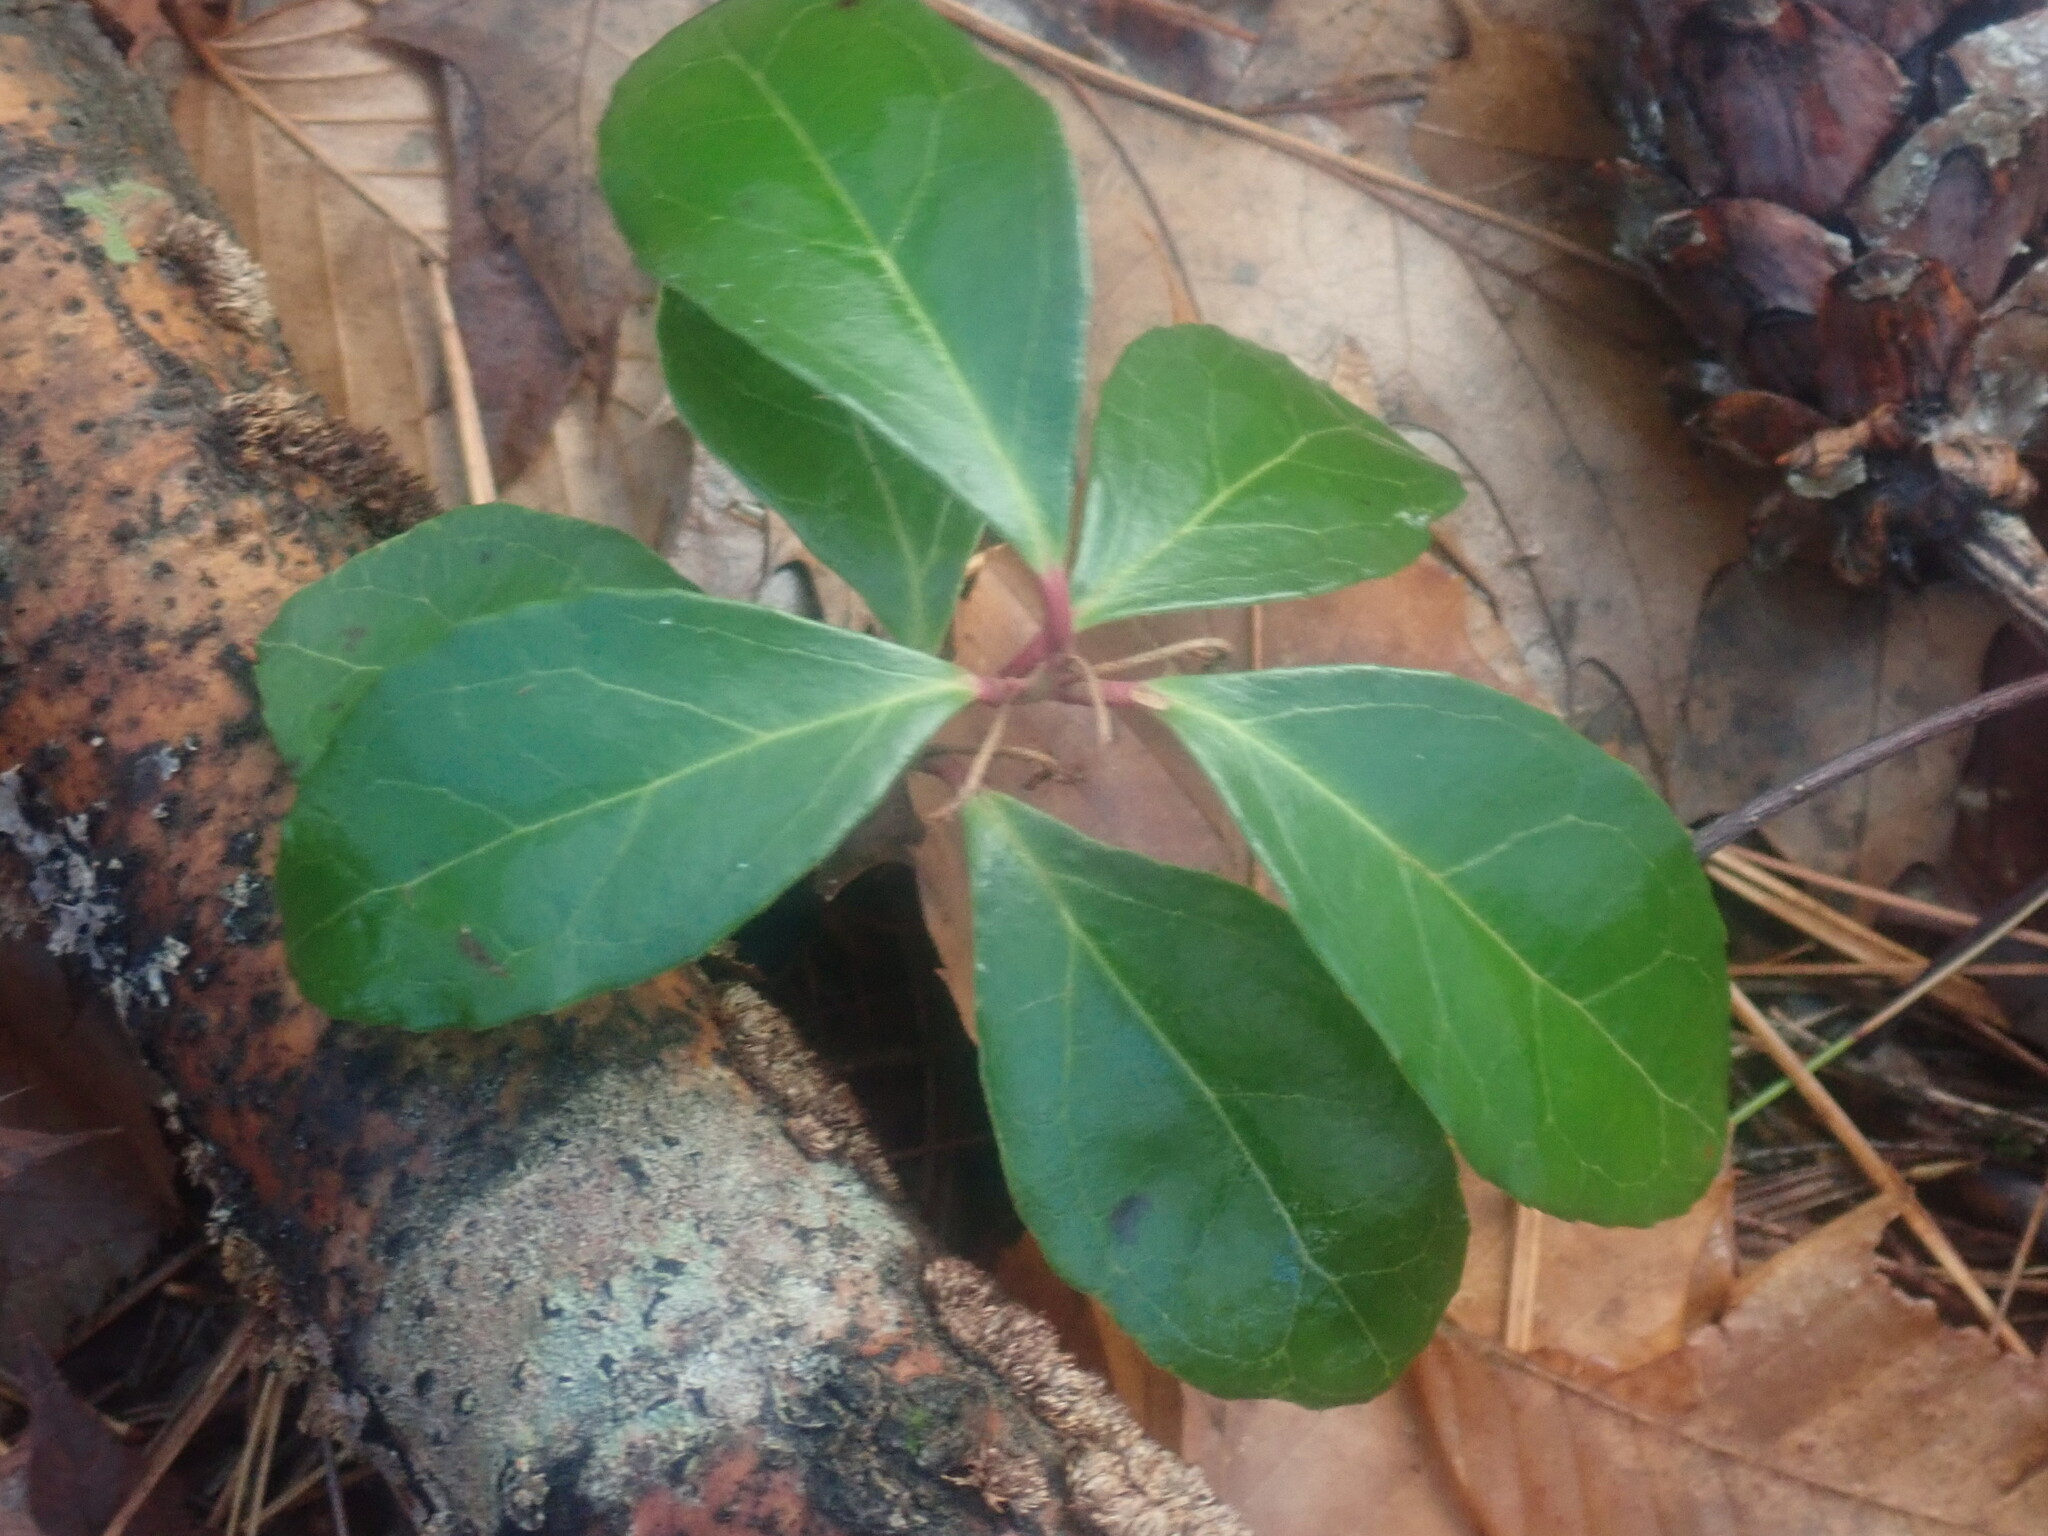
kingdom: Plantae
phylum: Tracheophyta
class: Magnoliopsida
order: Ericales
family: Ericaceae
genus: Gaultheria
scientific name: Gaultheria procumbens
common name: Checkerberry
